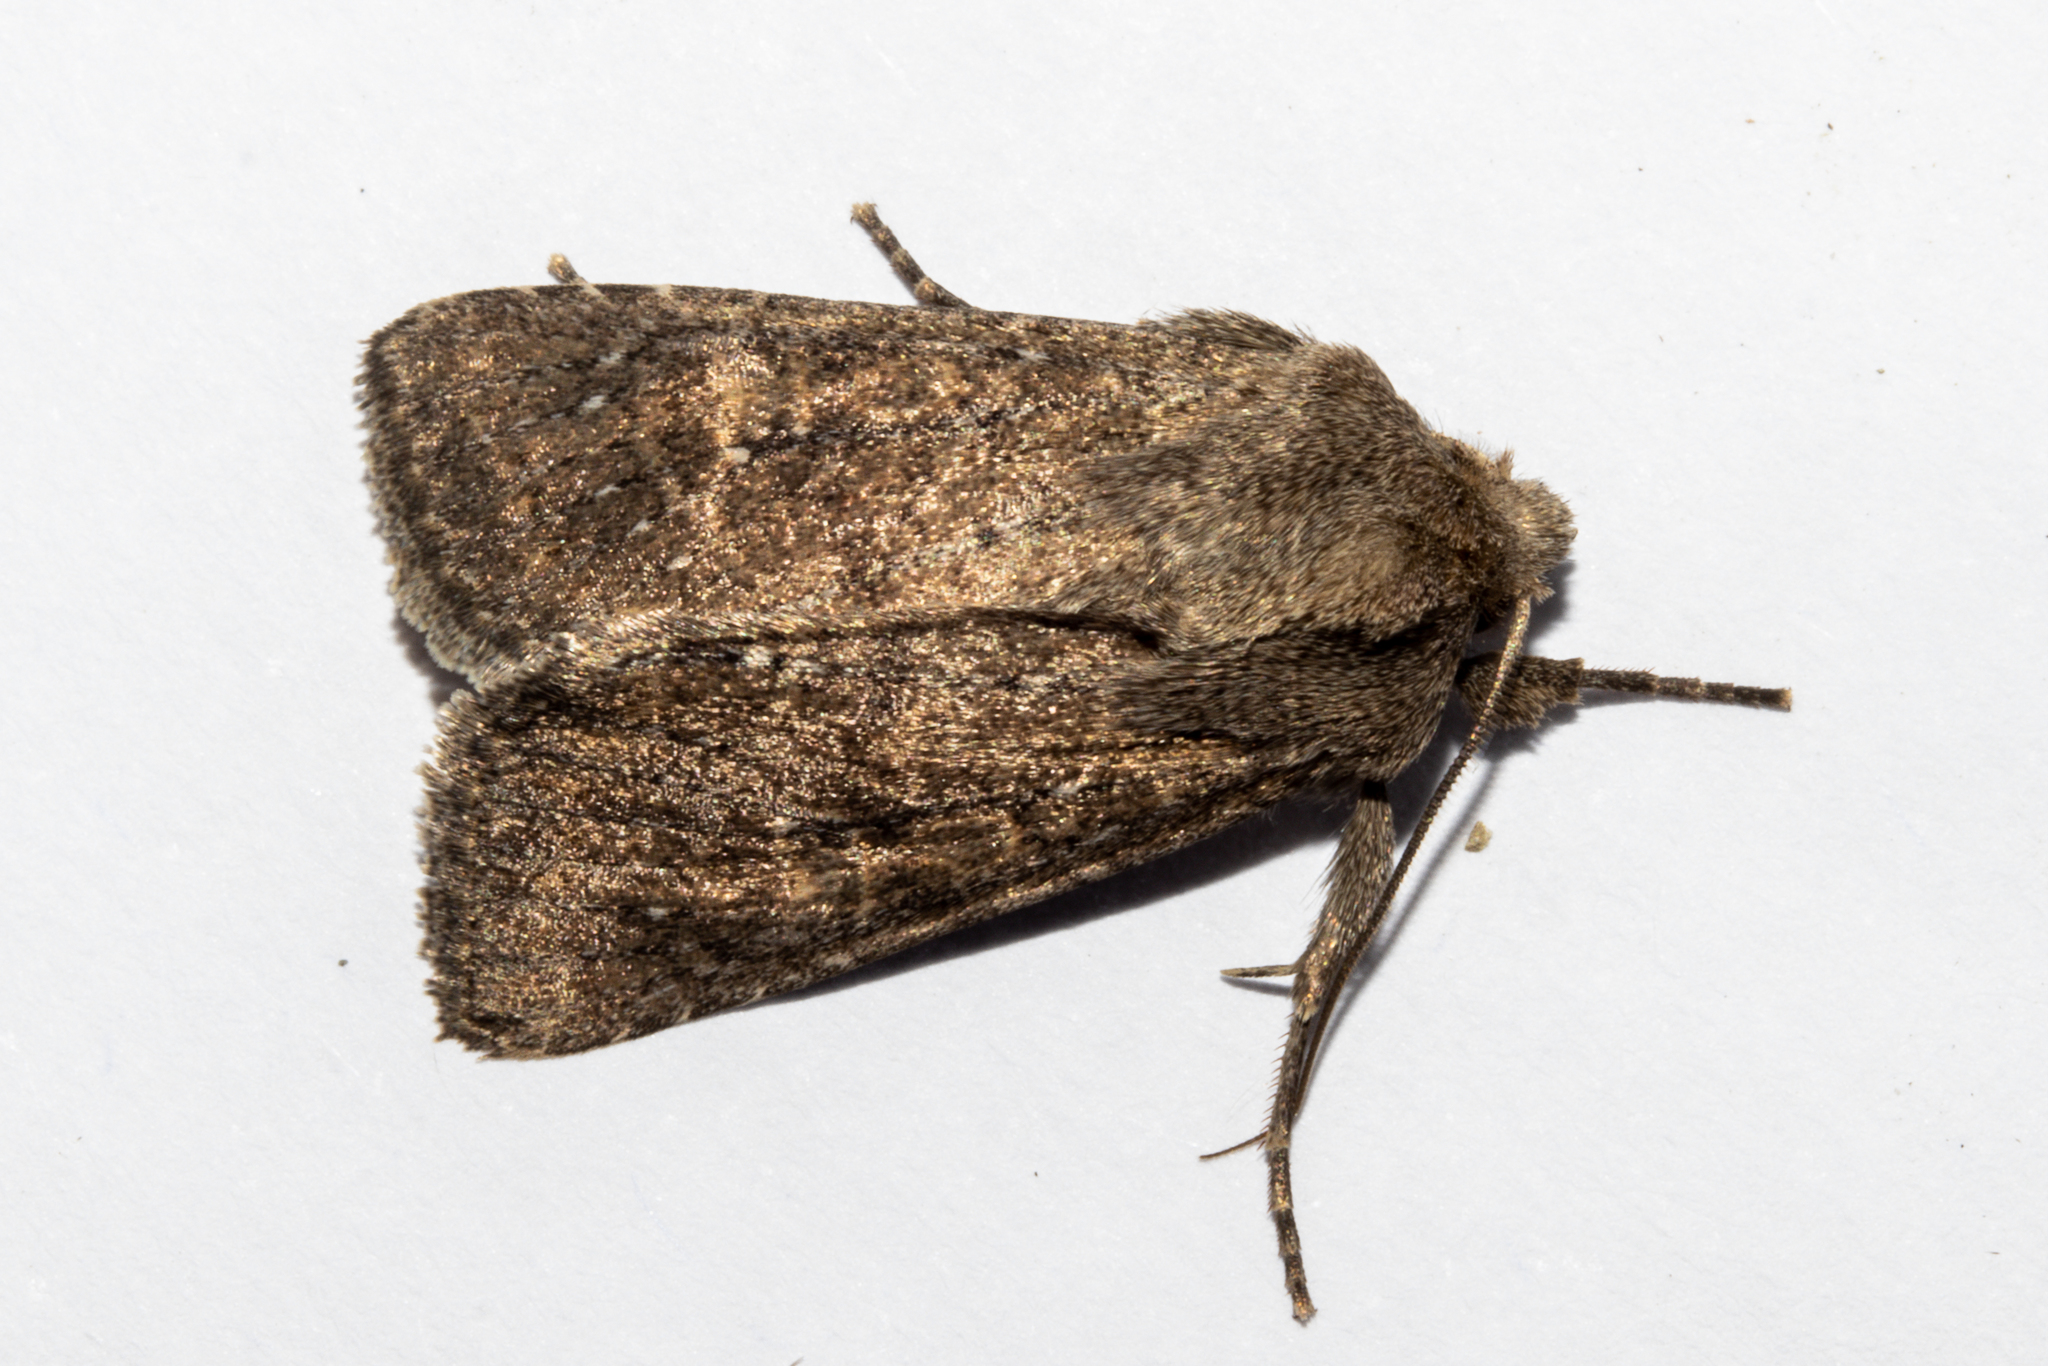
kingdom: Animalia
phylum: Arthropoda
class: Insecta
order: Lepidoptera
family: Noctuidae
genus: Physetica
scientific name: Physetica
